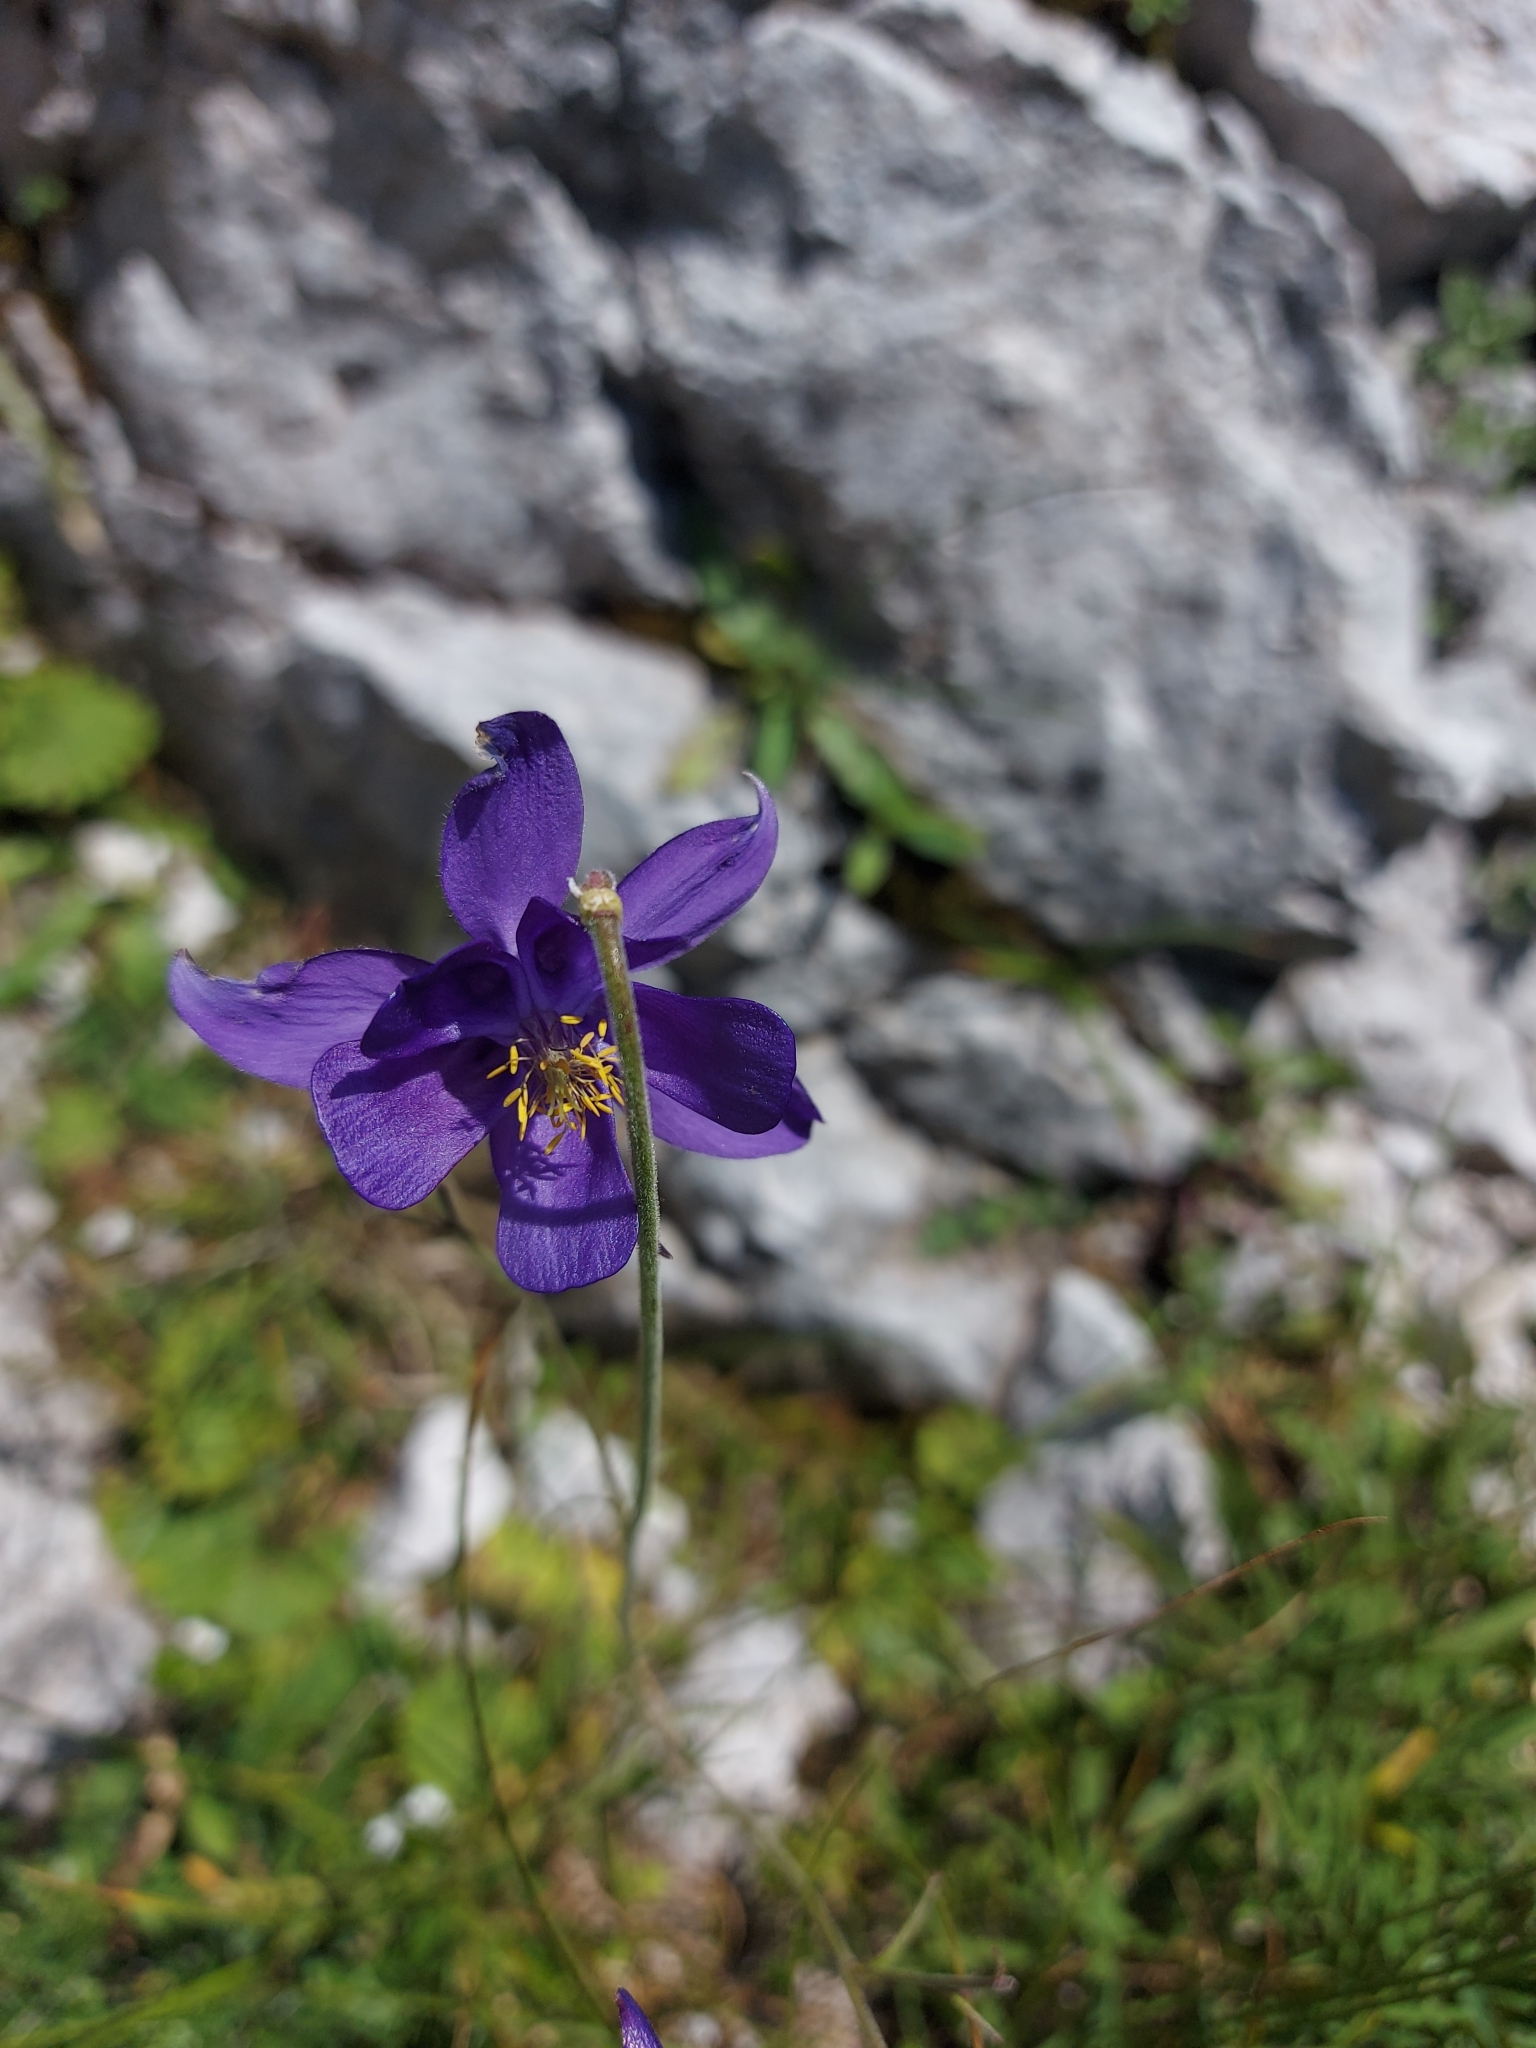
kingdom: Plantae
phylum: Tracheophyta
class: Magnoliopsida
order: Ranunculales
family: Ranunculaceae
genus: Aquilegia
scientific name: Aquilegia einseleana
